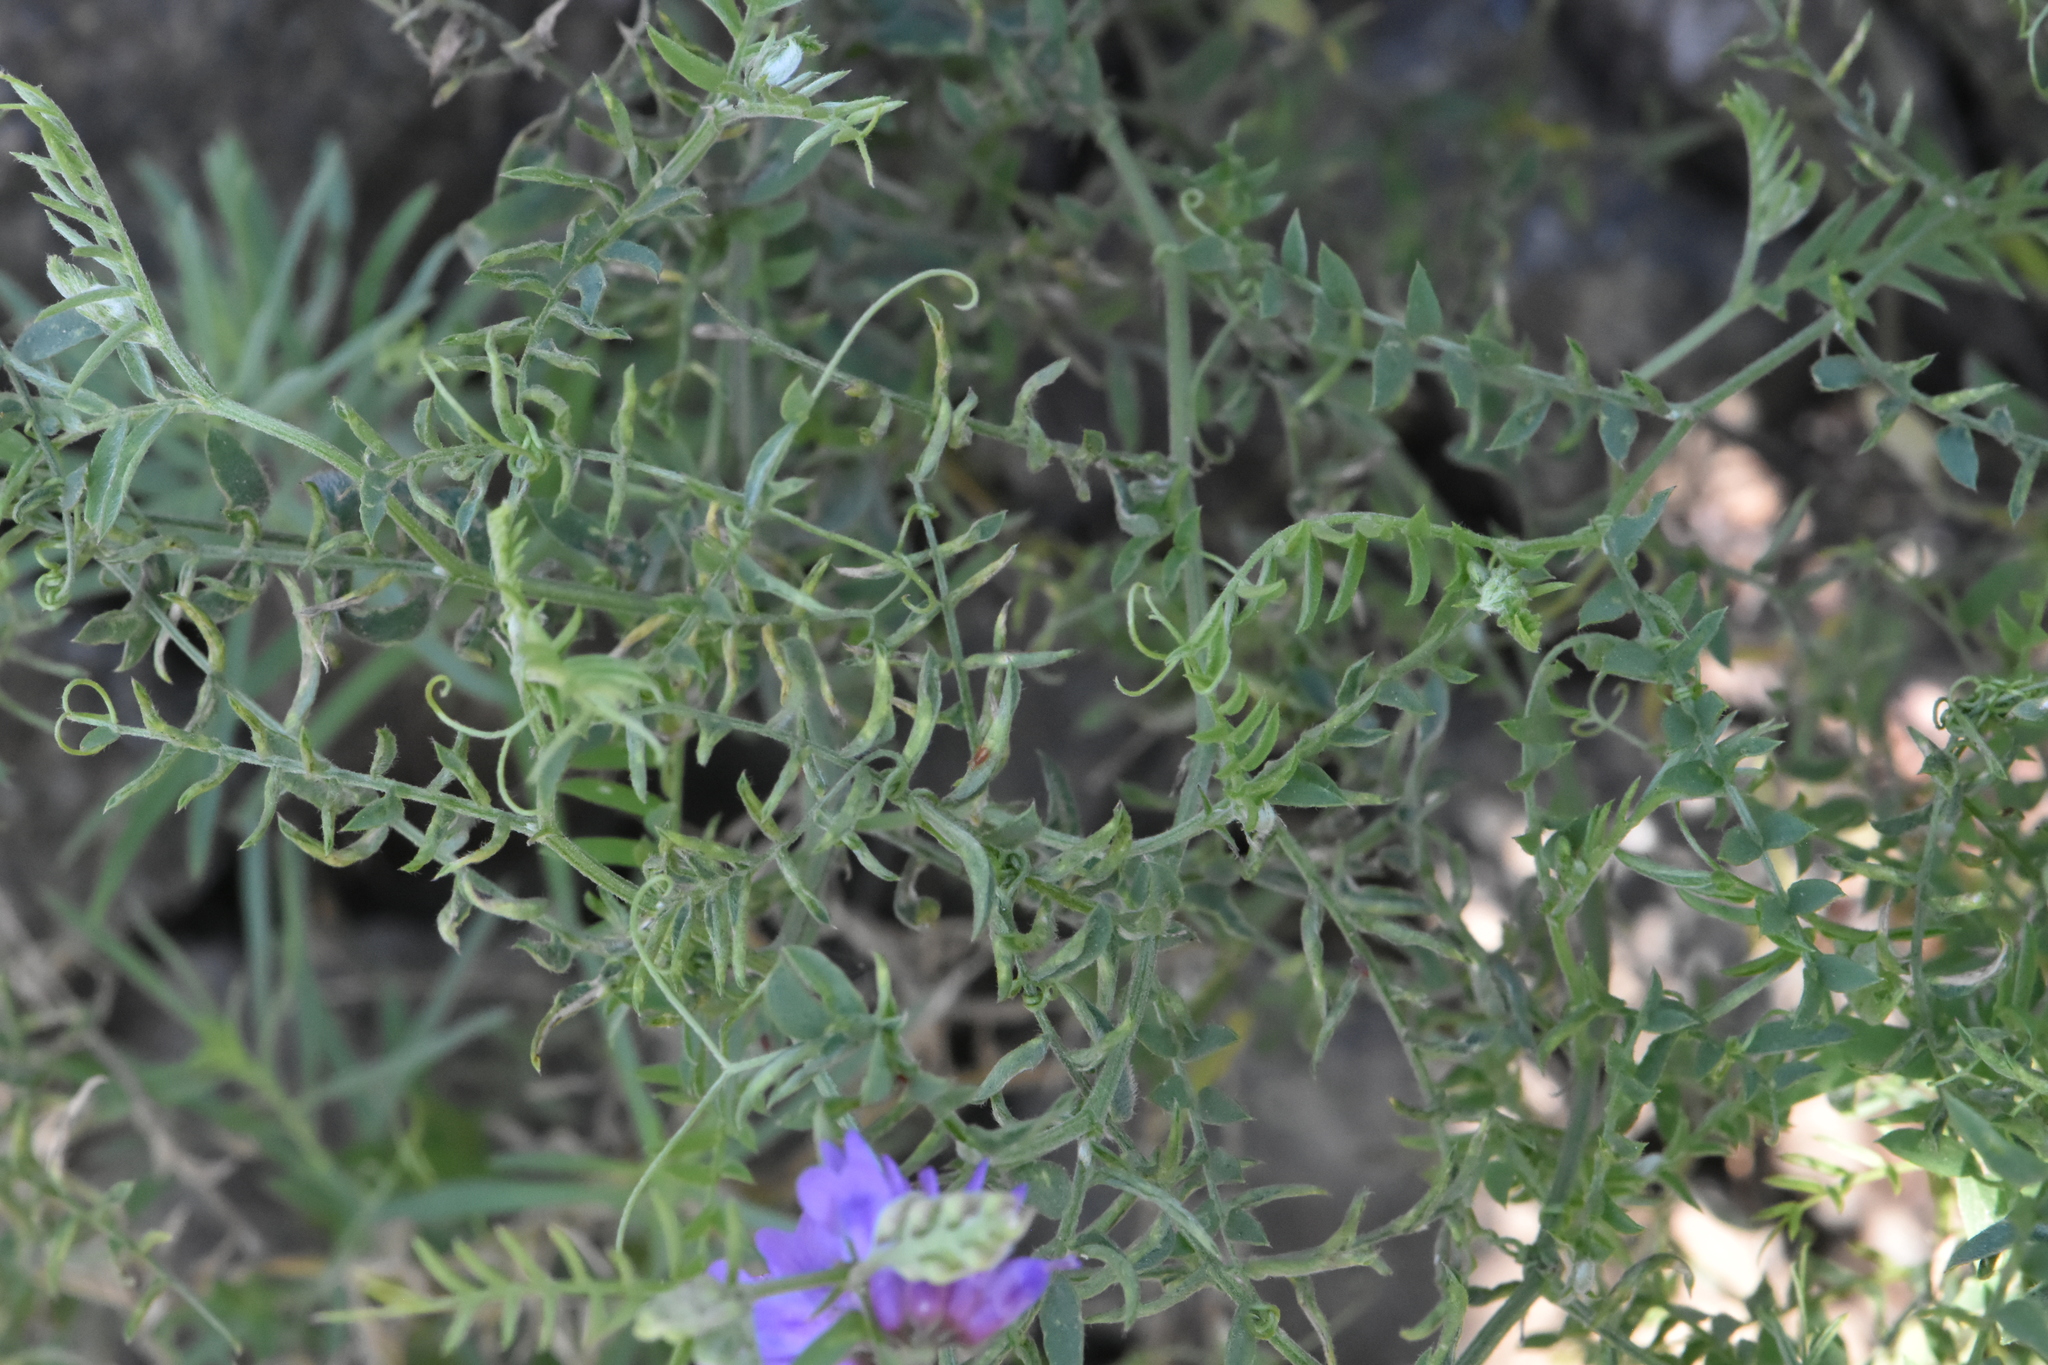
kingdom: Plantae
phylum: Tracheophyta
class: Magnoliopsida
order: Fabales
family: Fabaceae
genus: Vicia
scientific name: Vicia cracca
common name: Bird vetch
